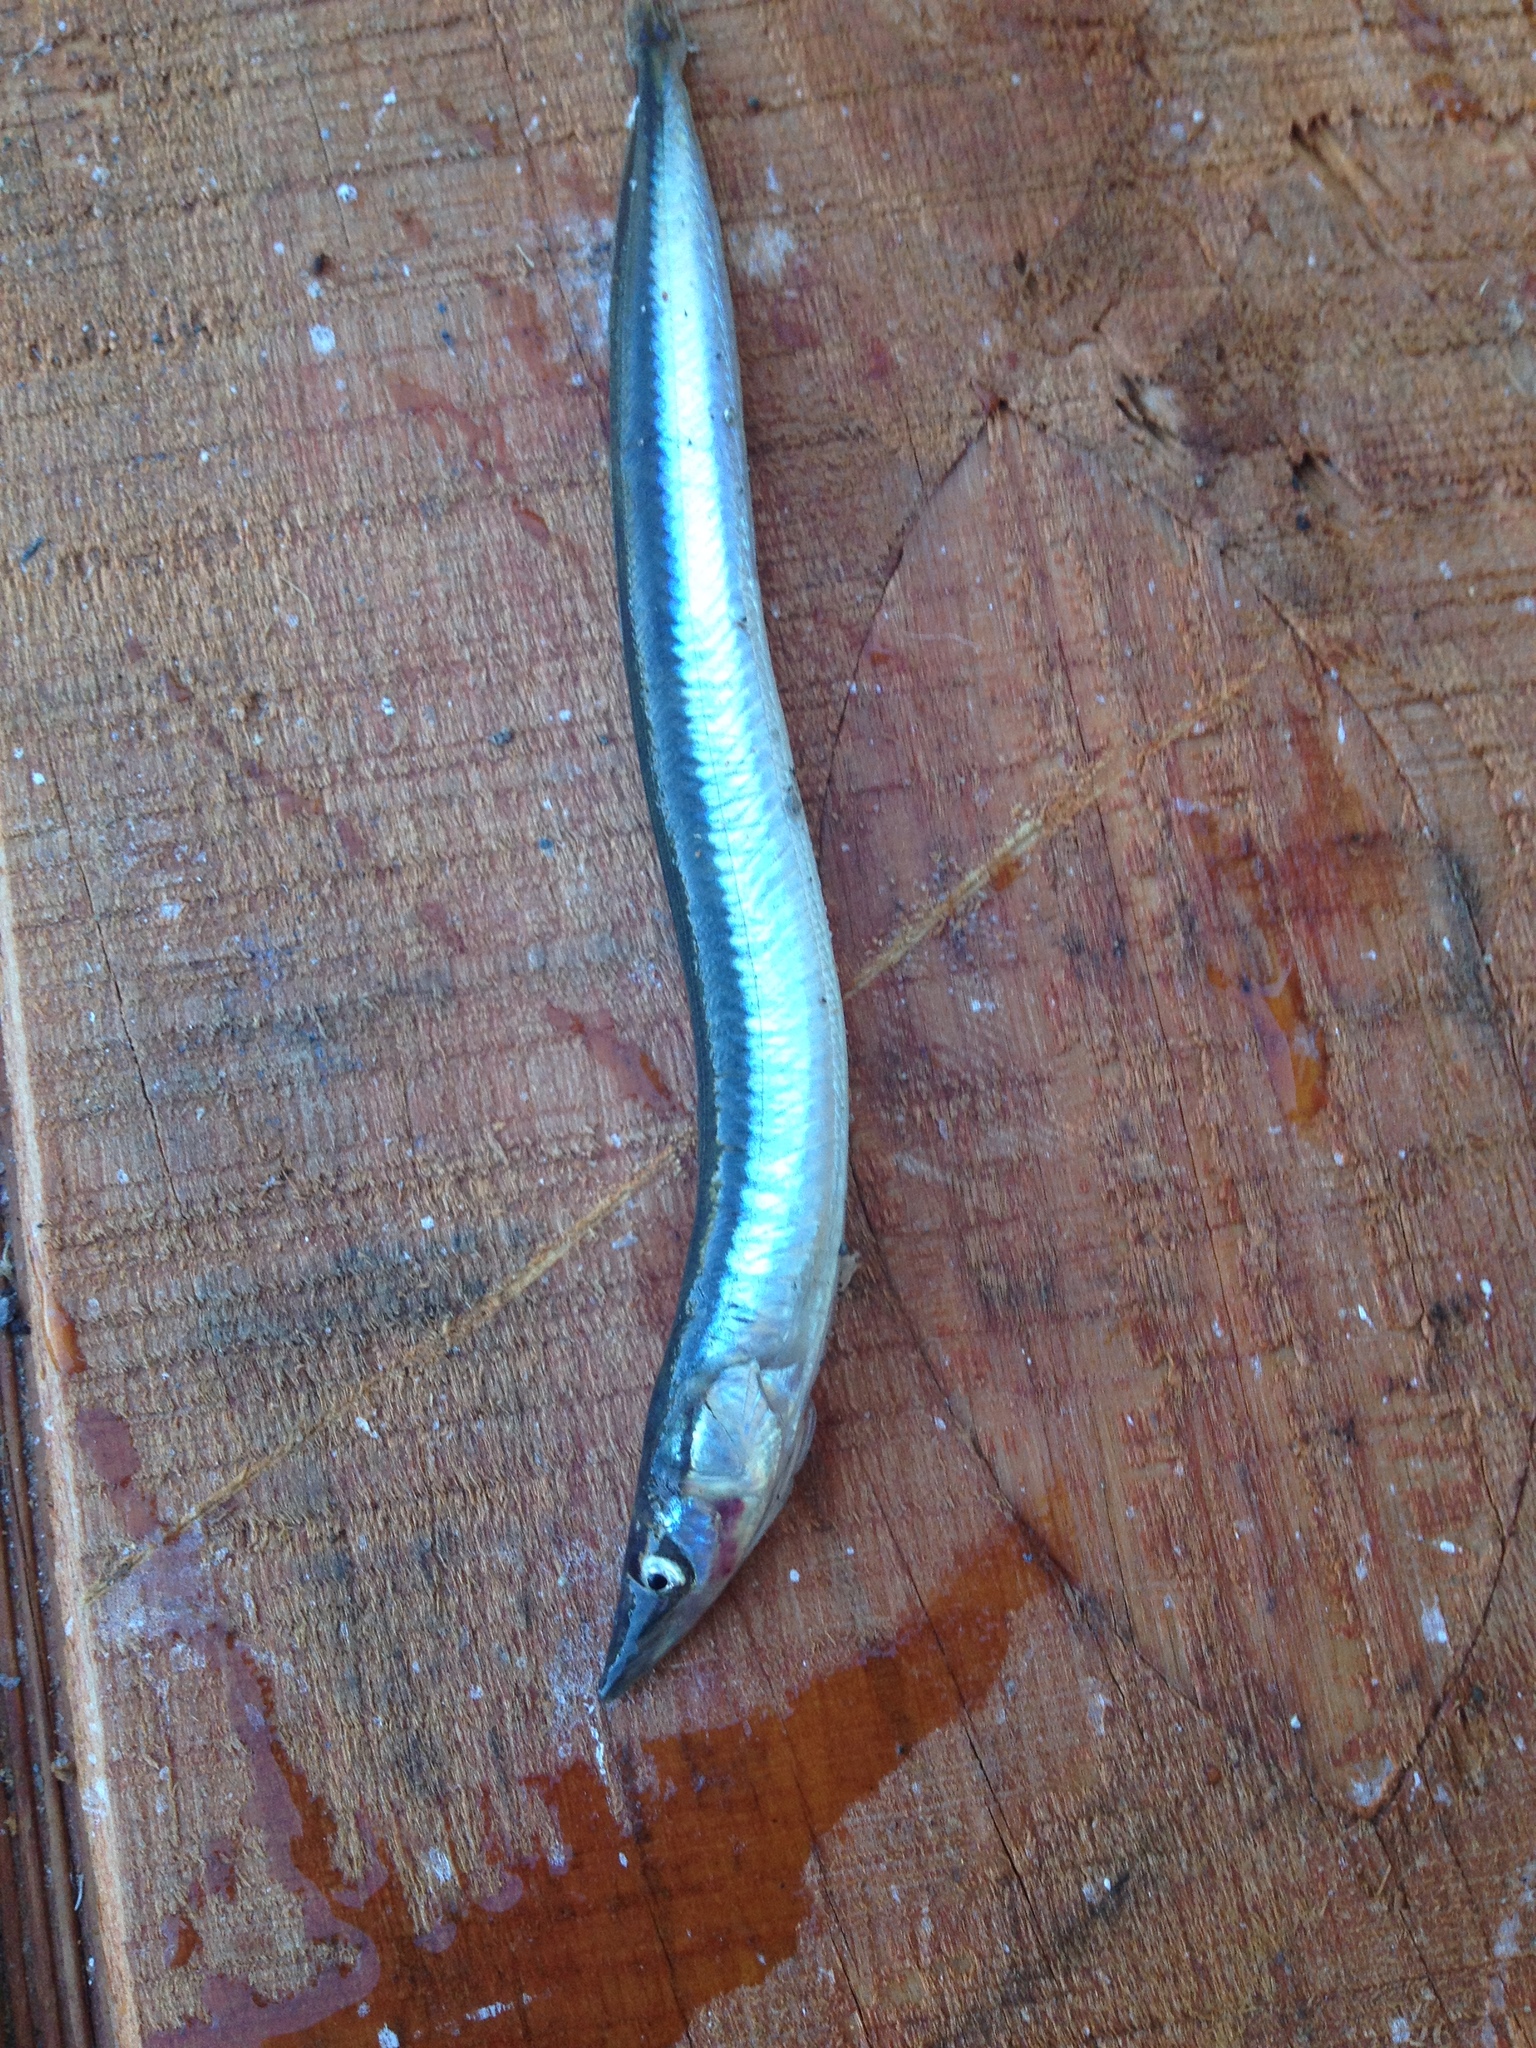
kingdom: Animalia
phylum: Chordata
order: Perciformes
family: Ammodytidae
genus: Ammodytes
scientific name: Ammodytes americanus
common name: American sand lance
